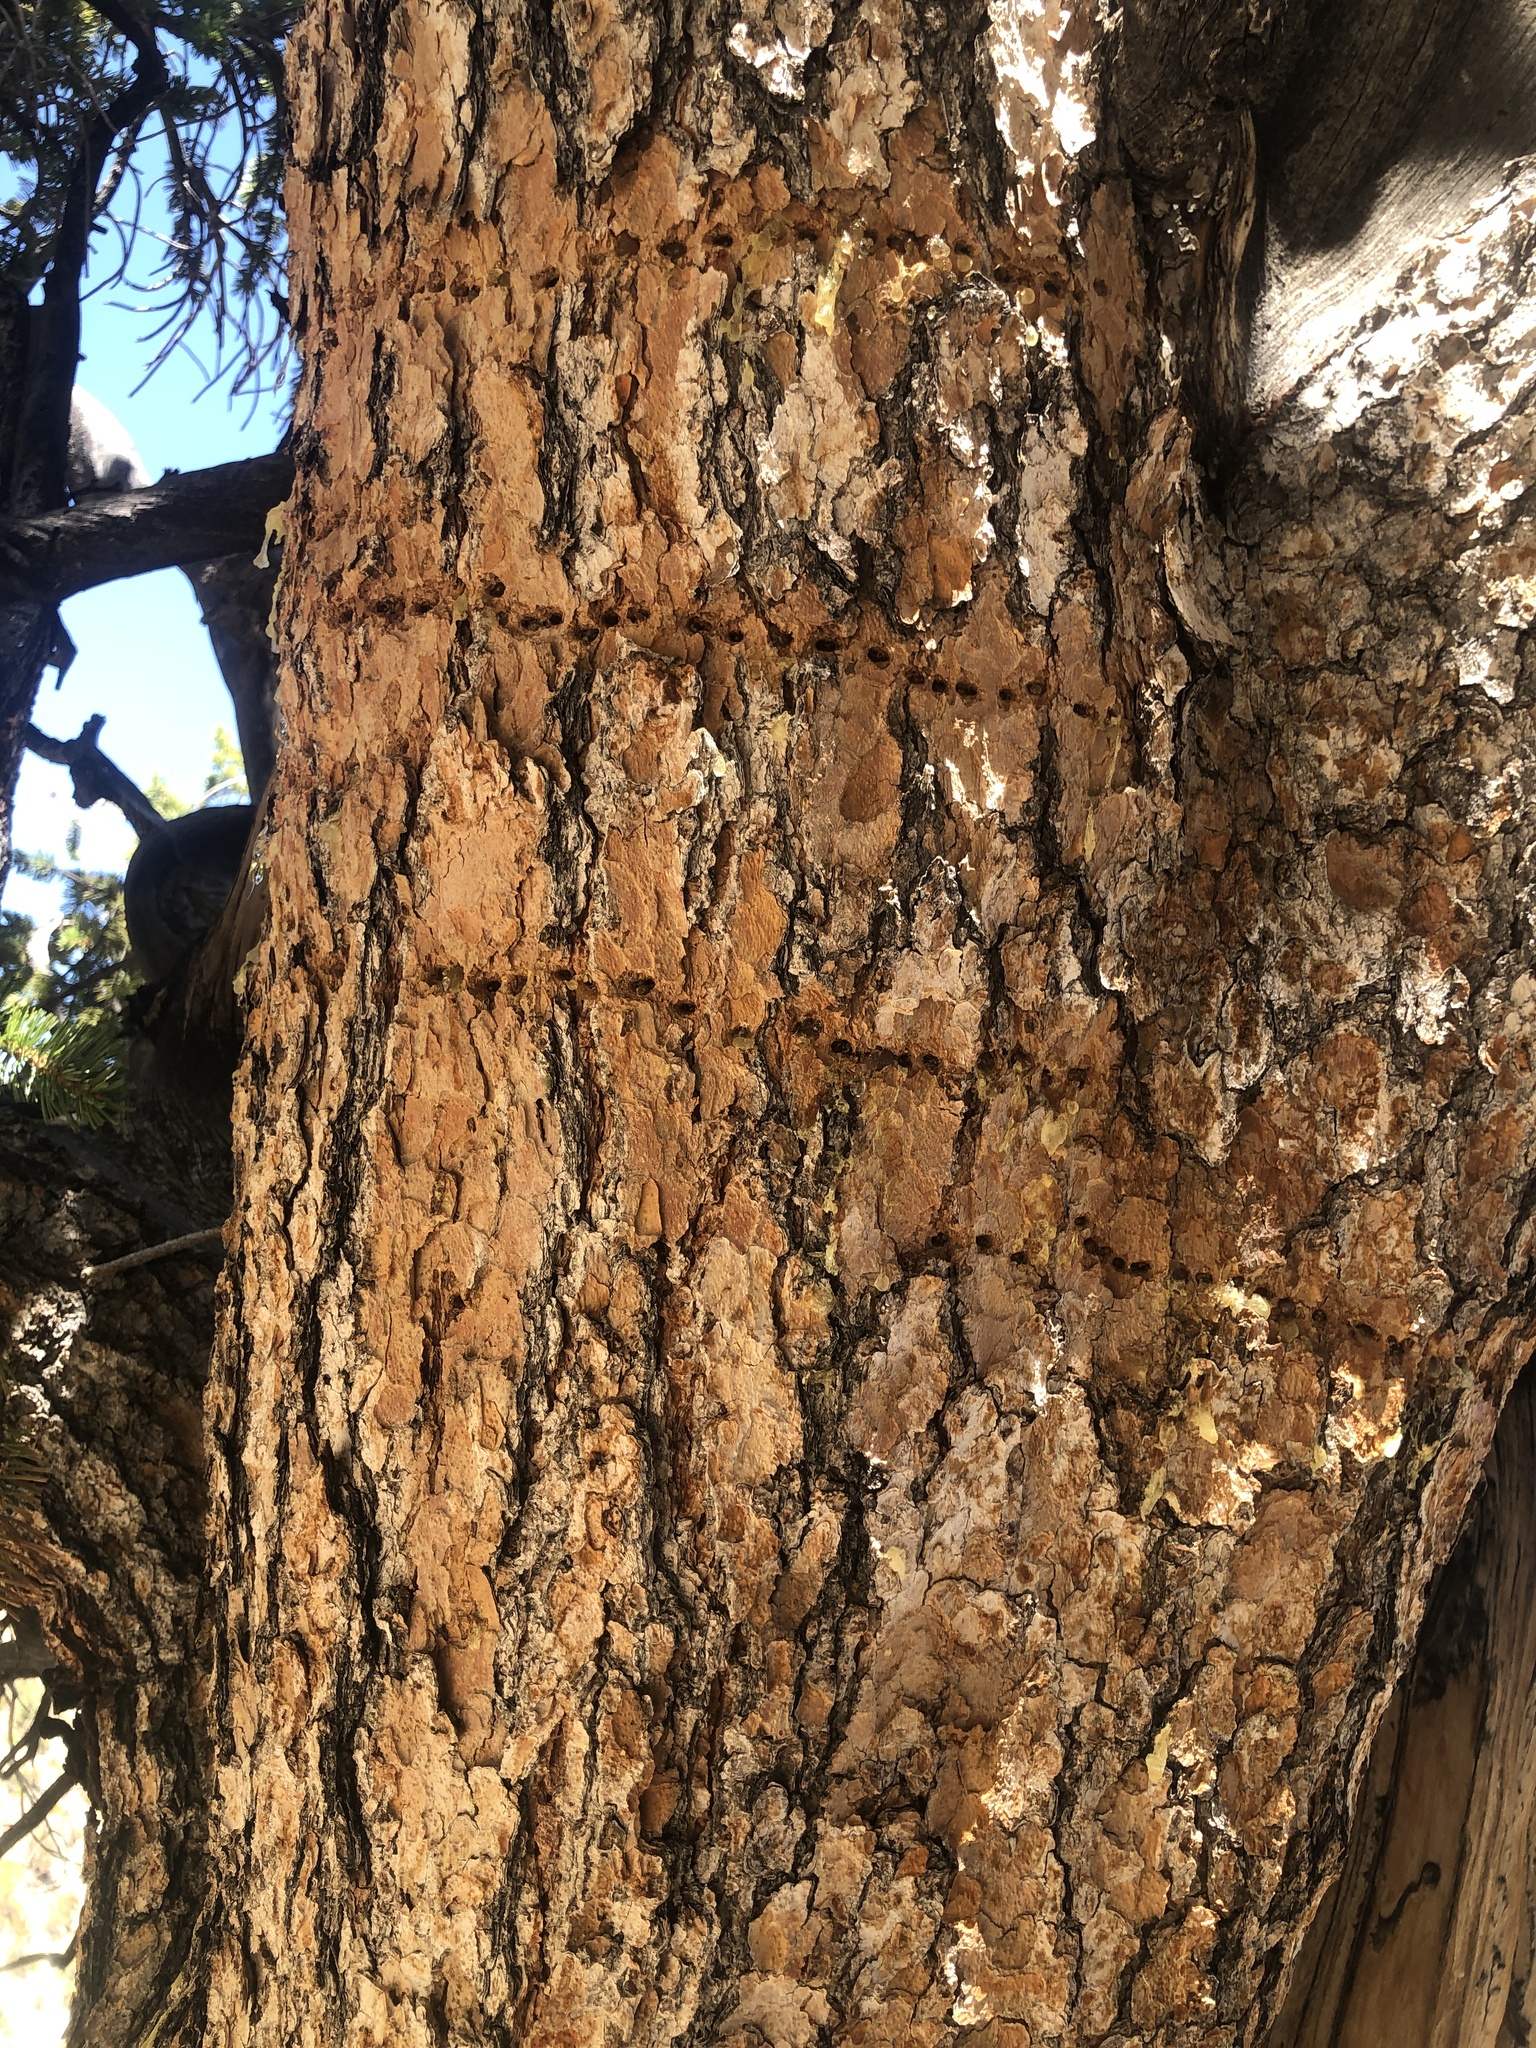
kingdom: Animalia
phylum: Chordata
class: Aves
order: Piciformes
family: Picidae
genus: Sphyrapicus
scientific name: Sphyrapicus
